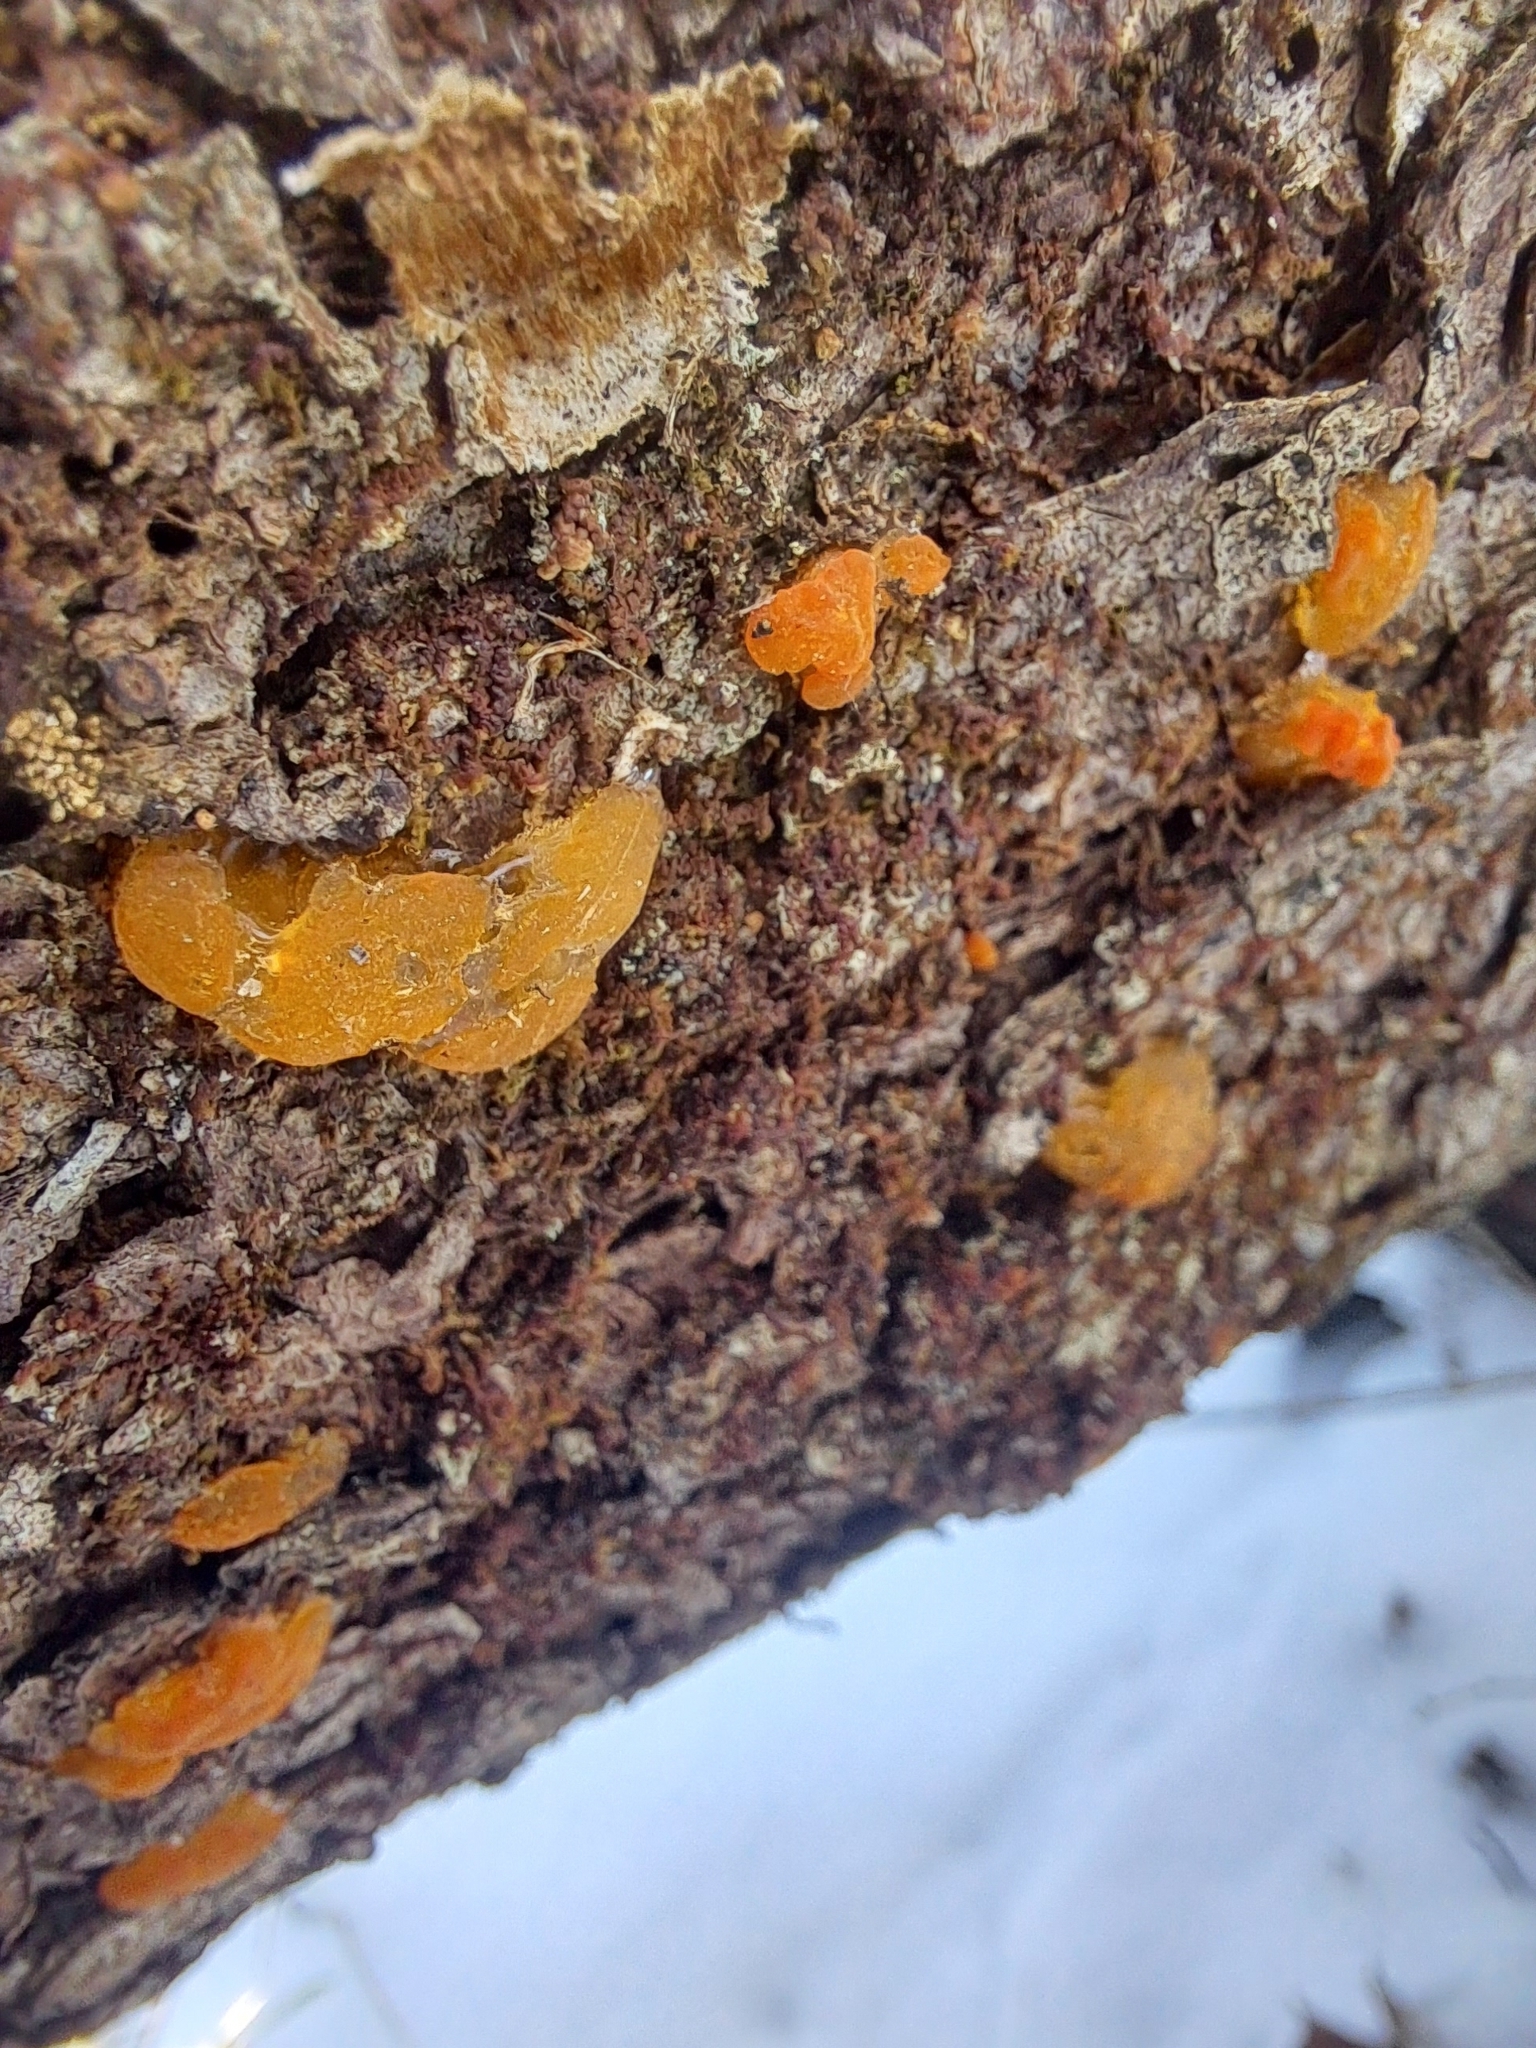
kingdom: Fungi
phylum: Basidiomycota
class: Dacrymycetes
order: Dacrymycetales
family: Dacrymycetaceae
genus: Dacrymyces
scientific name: Dacrymyces chrysospermus
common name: Orange jelly spot
